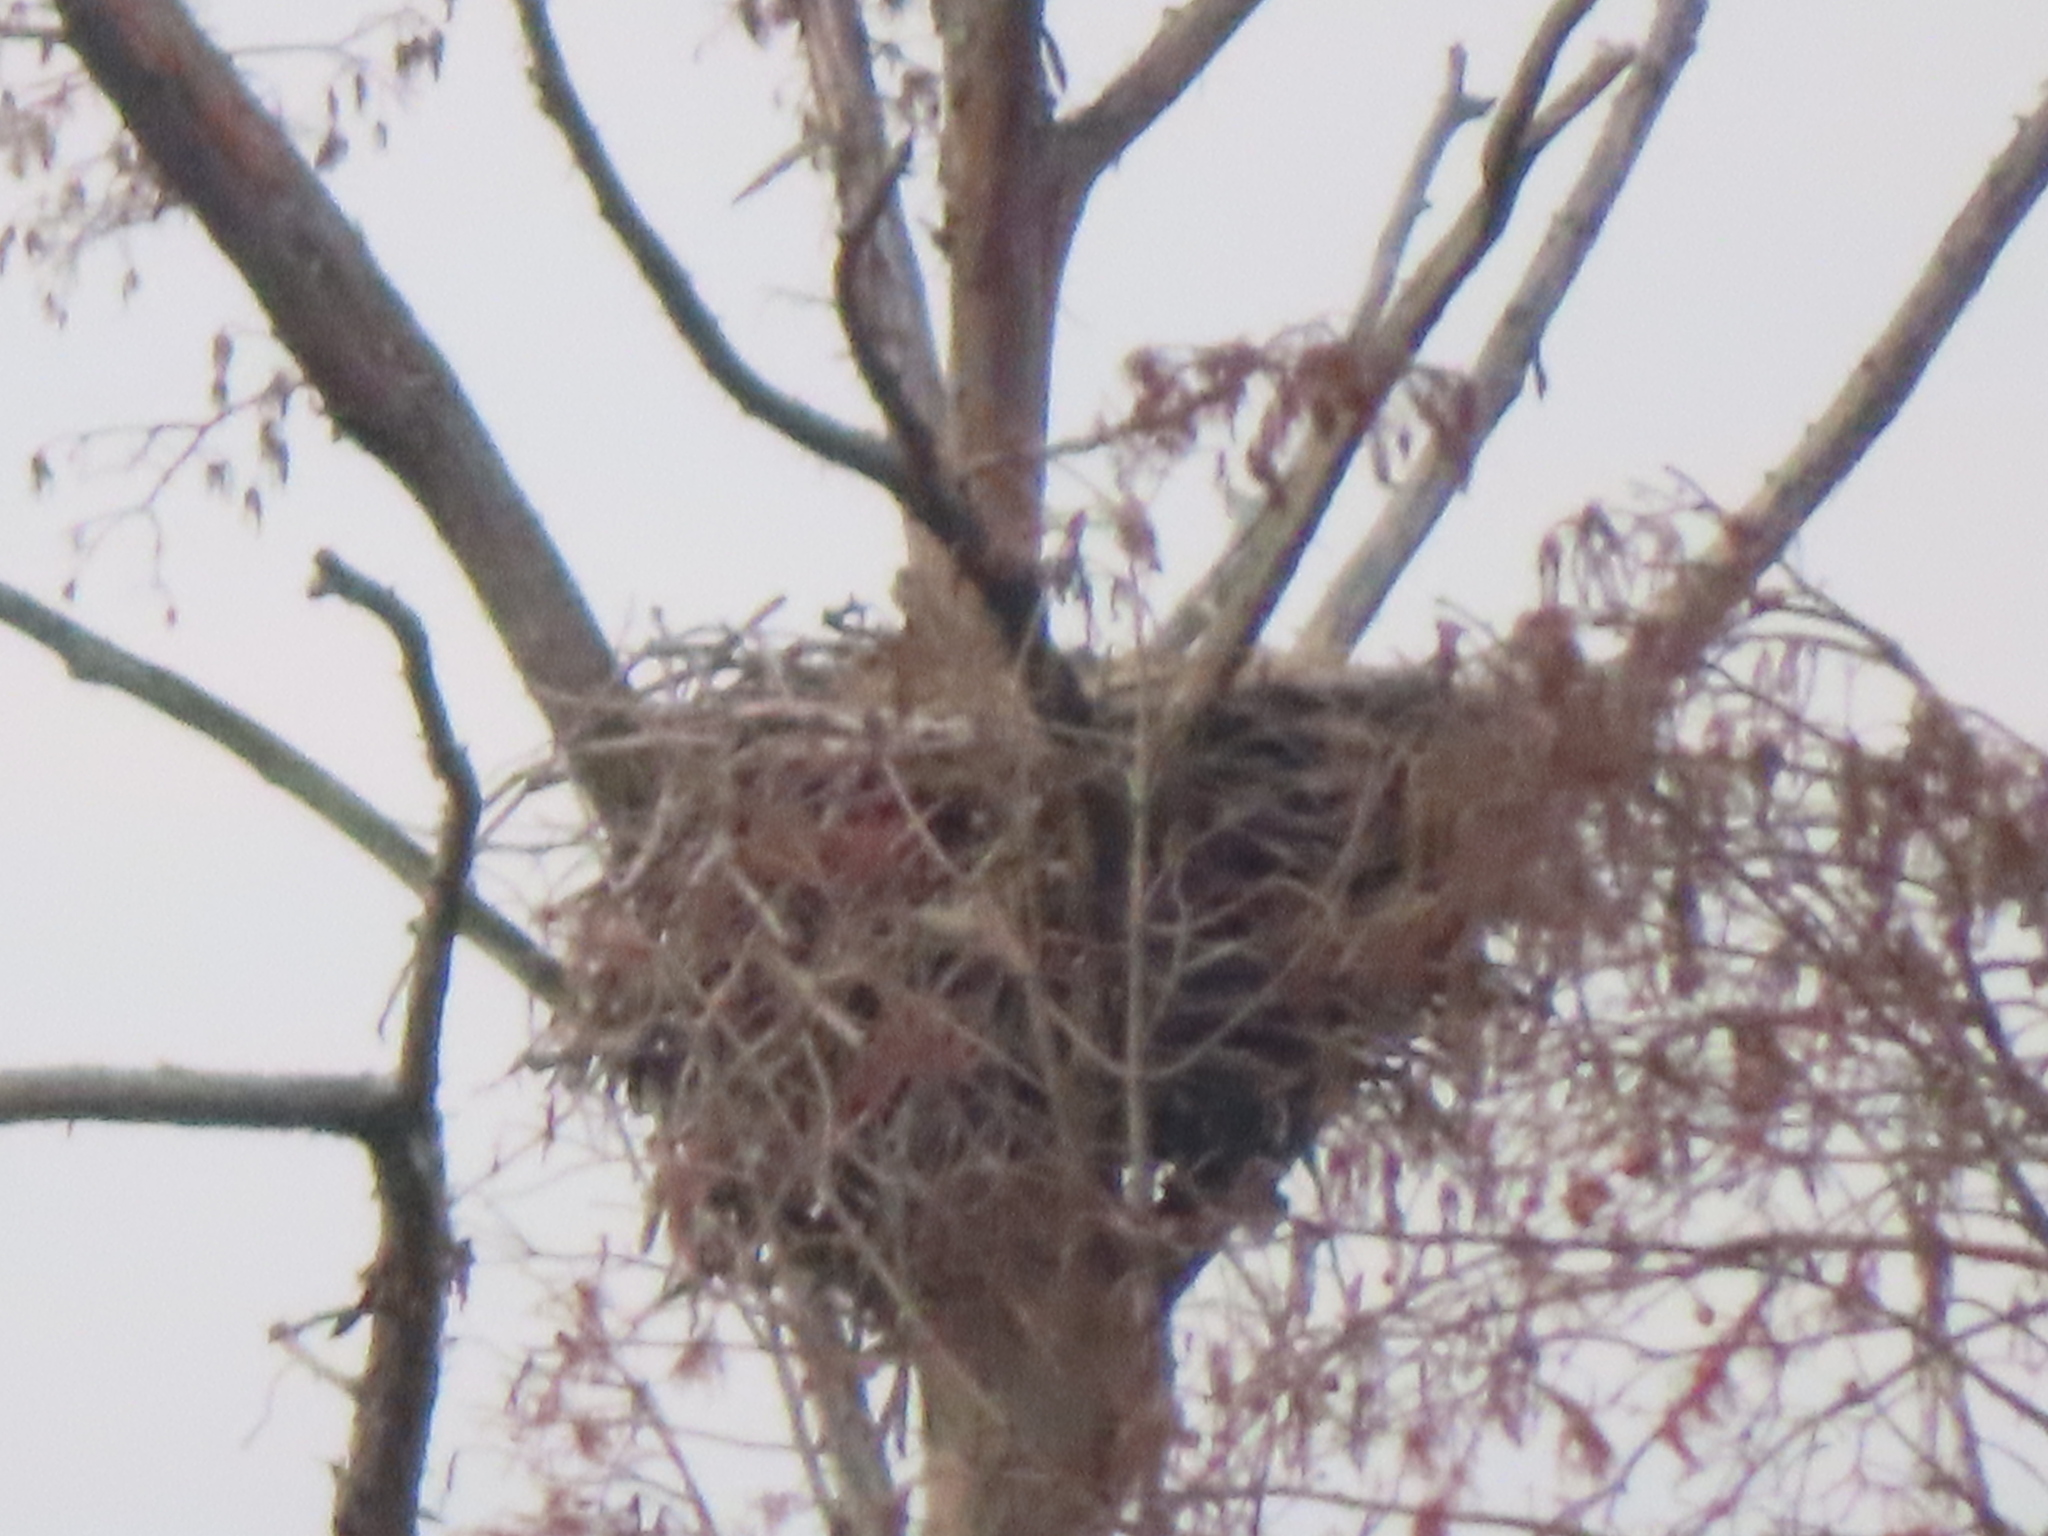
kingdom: Animalia
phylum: Chordata
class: Aves
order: Accipitriformes
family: Accipitridae
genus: Haliaeetus
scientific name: Haliaeetus leucocephalus
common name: Bald eagle
